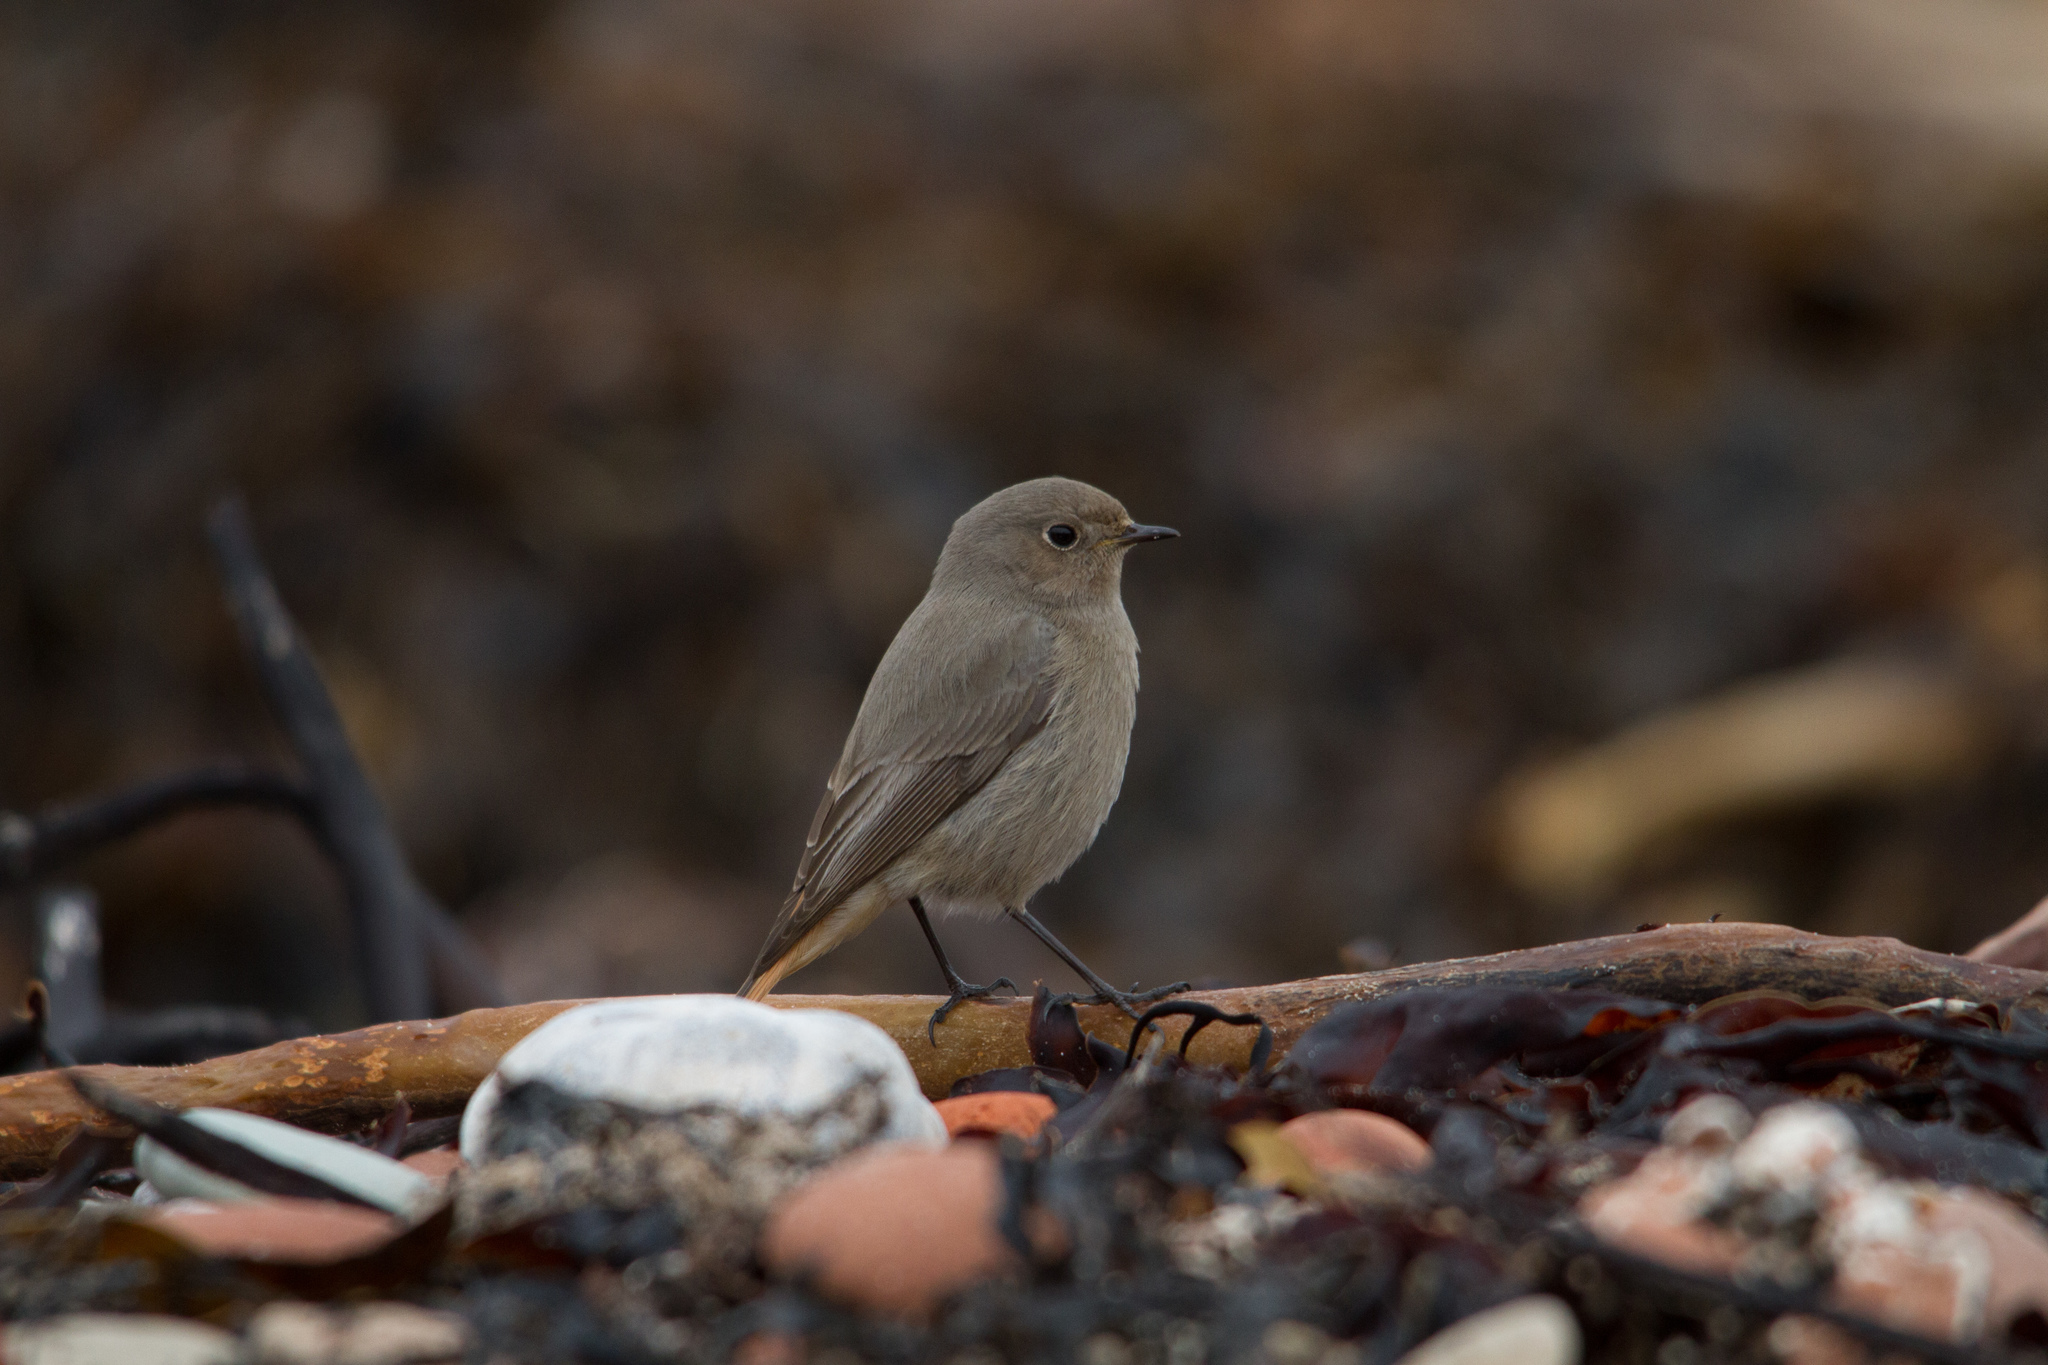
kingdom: Animalia
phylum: Chordata
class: Aves
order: Passeriformes
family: Muscicapidae
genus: Phoenicurus
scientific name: Phoenicurus ochruros
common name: Black redstart
